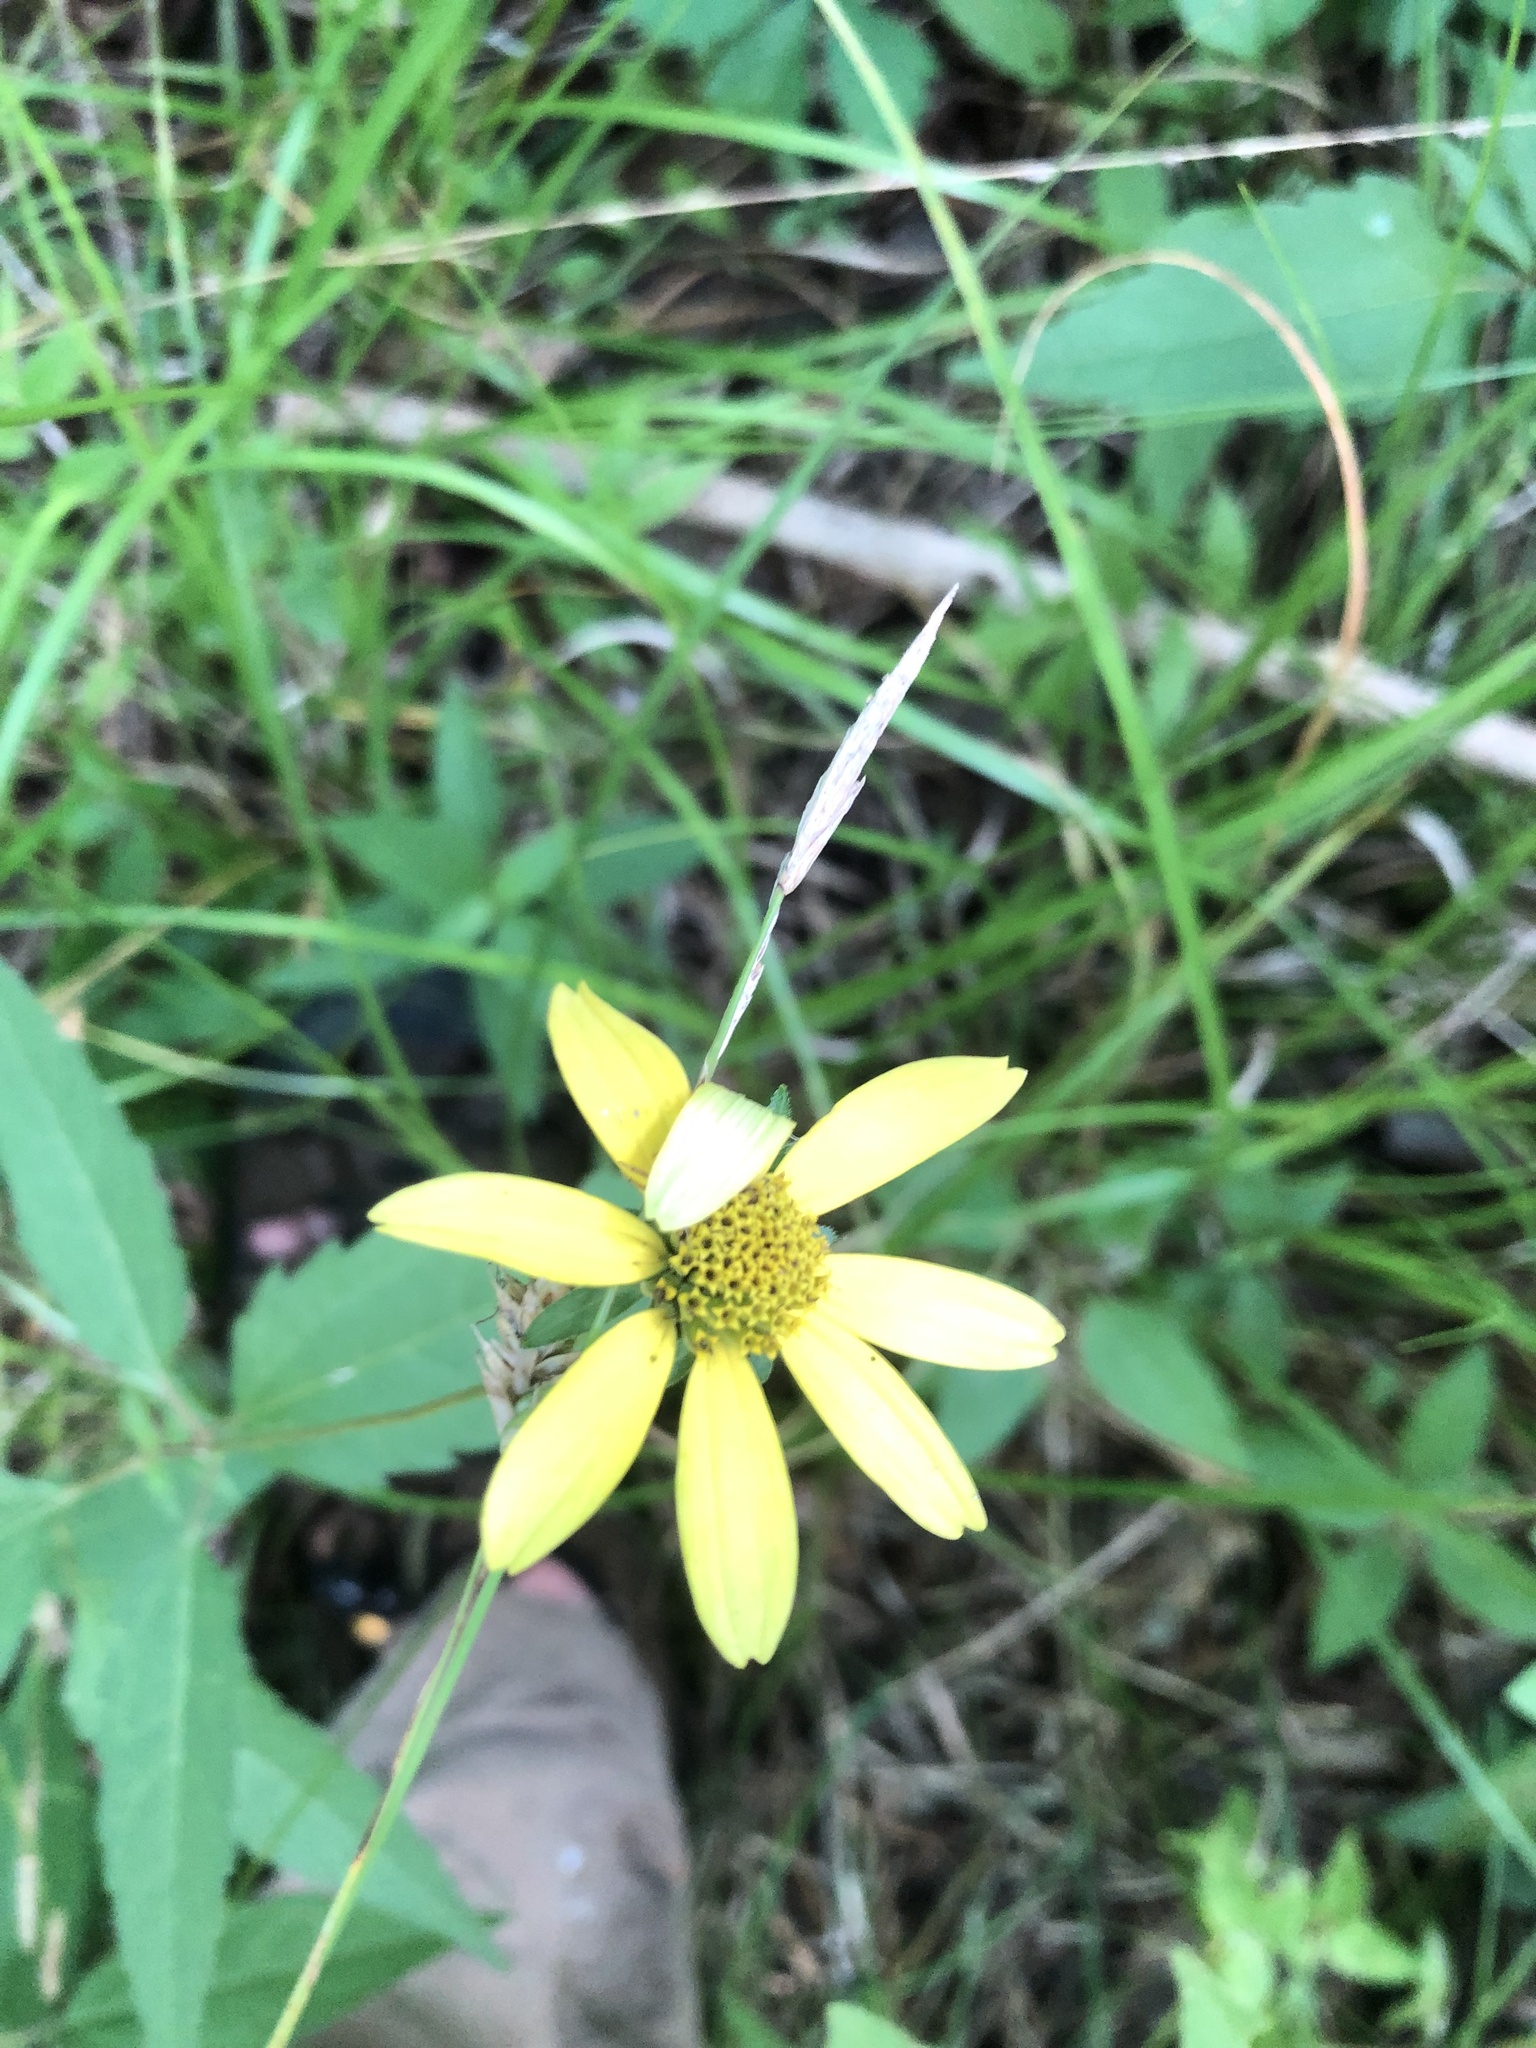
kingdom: Plantae
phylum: Tracheophyta
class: Magnoliopsida
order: Asterales
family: Asteraceae
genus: Heliopsis
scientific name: Heliopsis gracilis
